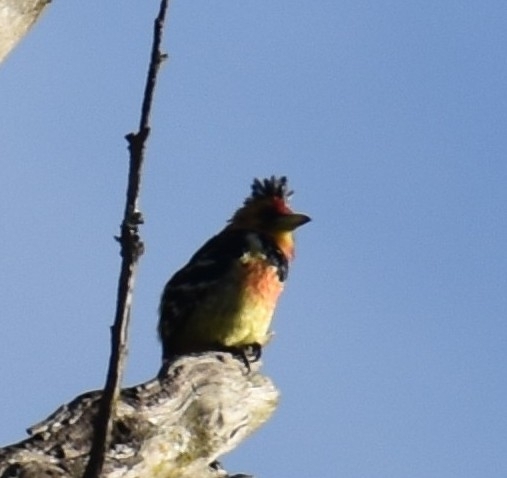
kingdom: Animalia
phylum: Chordata
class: Aves
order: Piciformes
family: Lybiidae
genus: Trachyphonus
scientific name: Trachyphonus vaillantii
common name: Crested barbet
